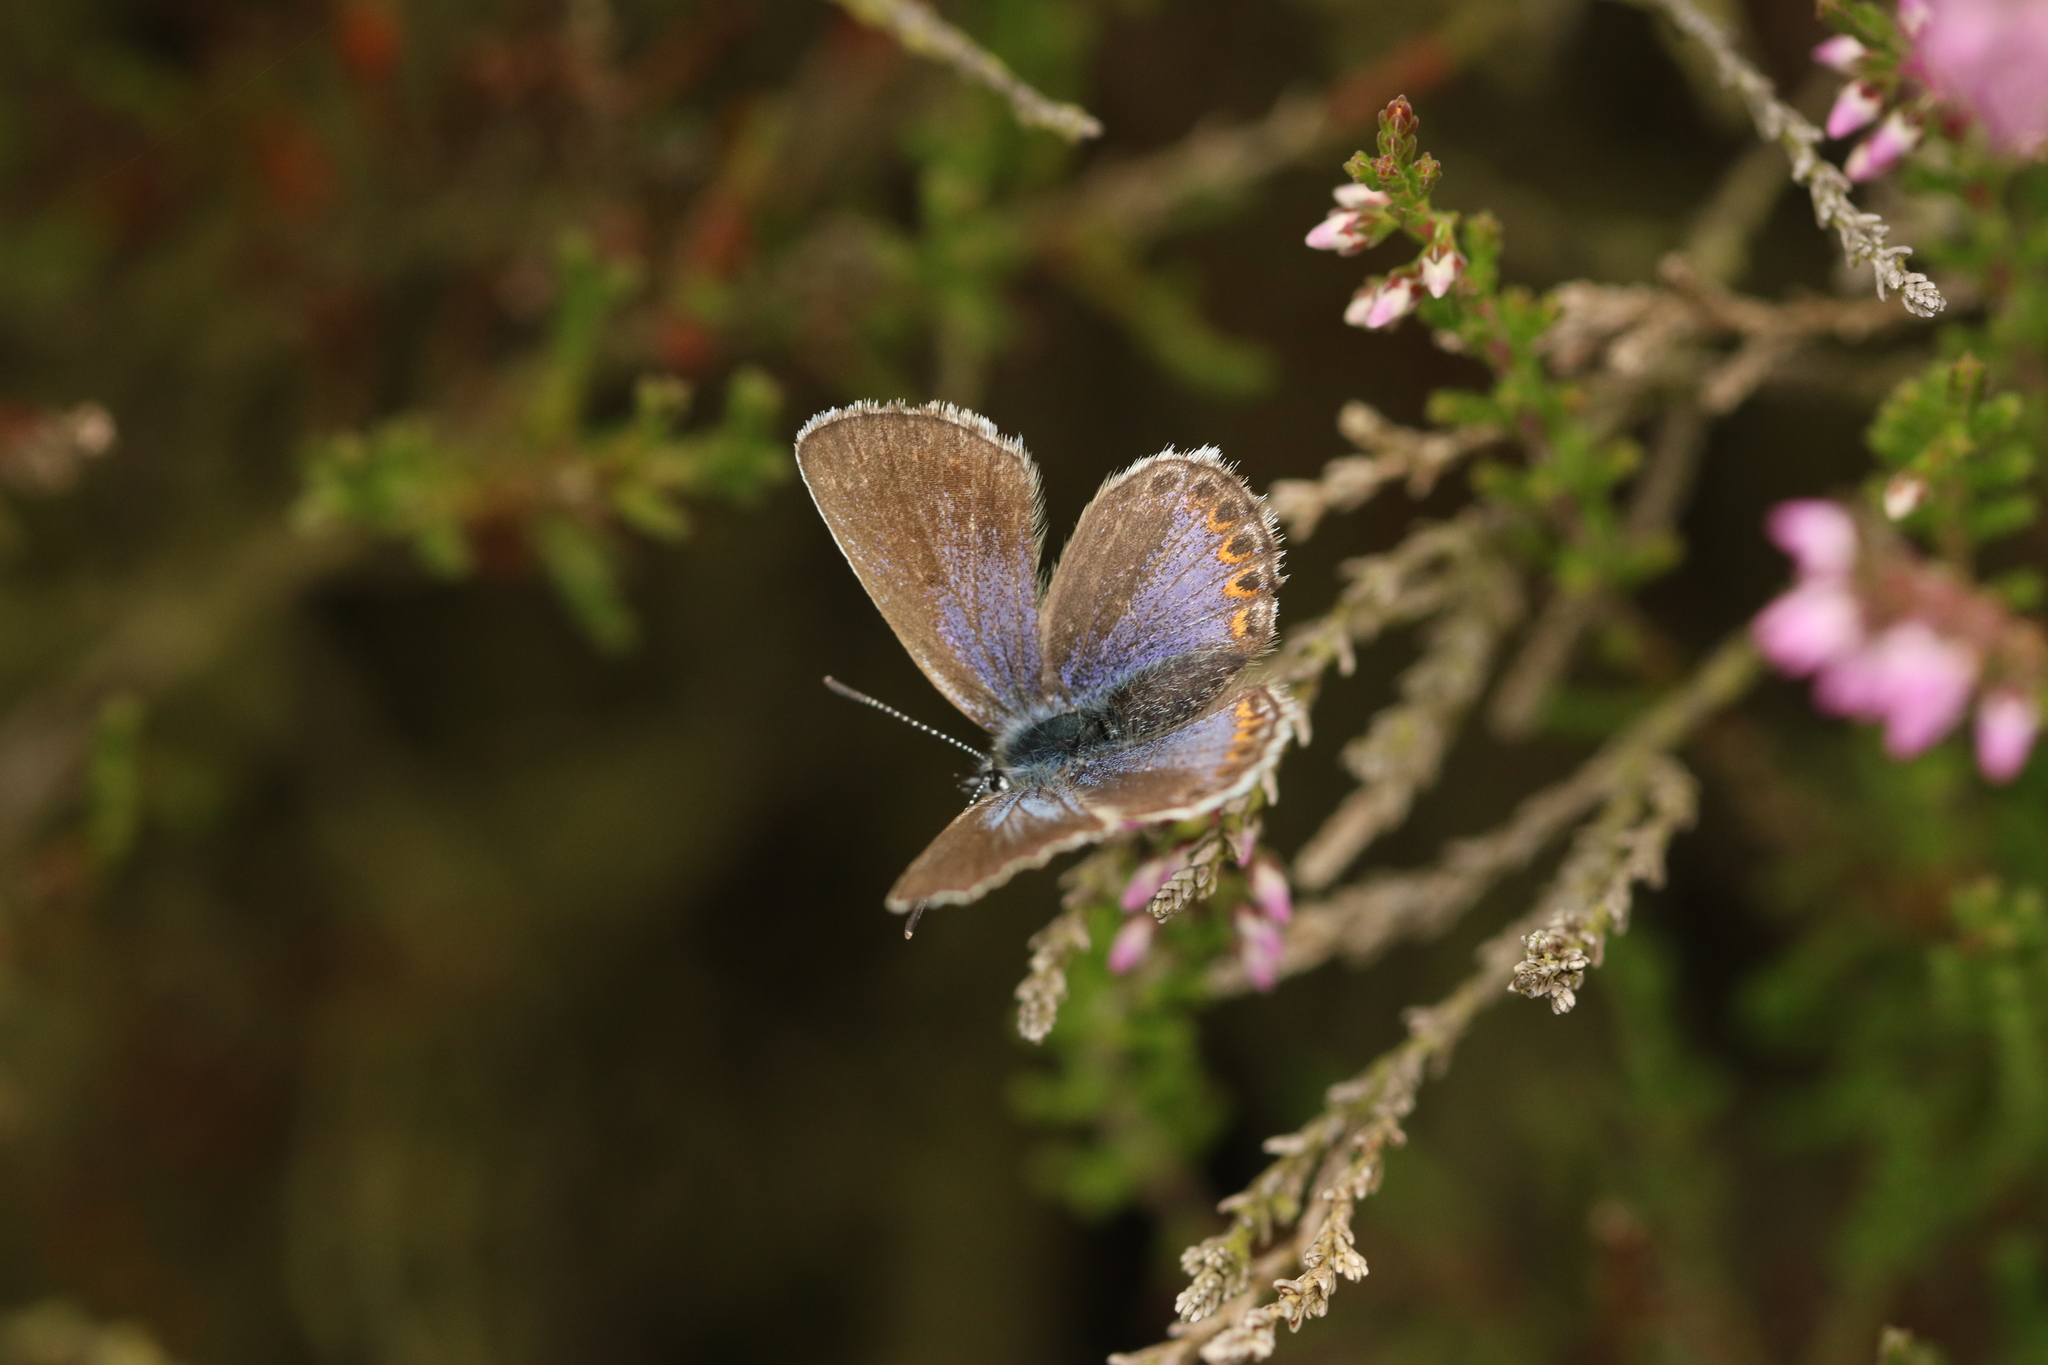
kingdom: Animalia
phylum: Arthropoda
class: Insecta
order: Lepidoptera
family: Lycaenidae
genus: Lycaeides
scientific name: Lycaeides idas
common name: Northern blue
